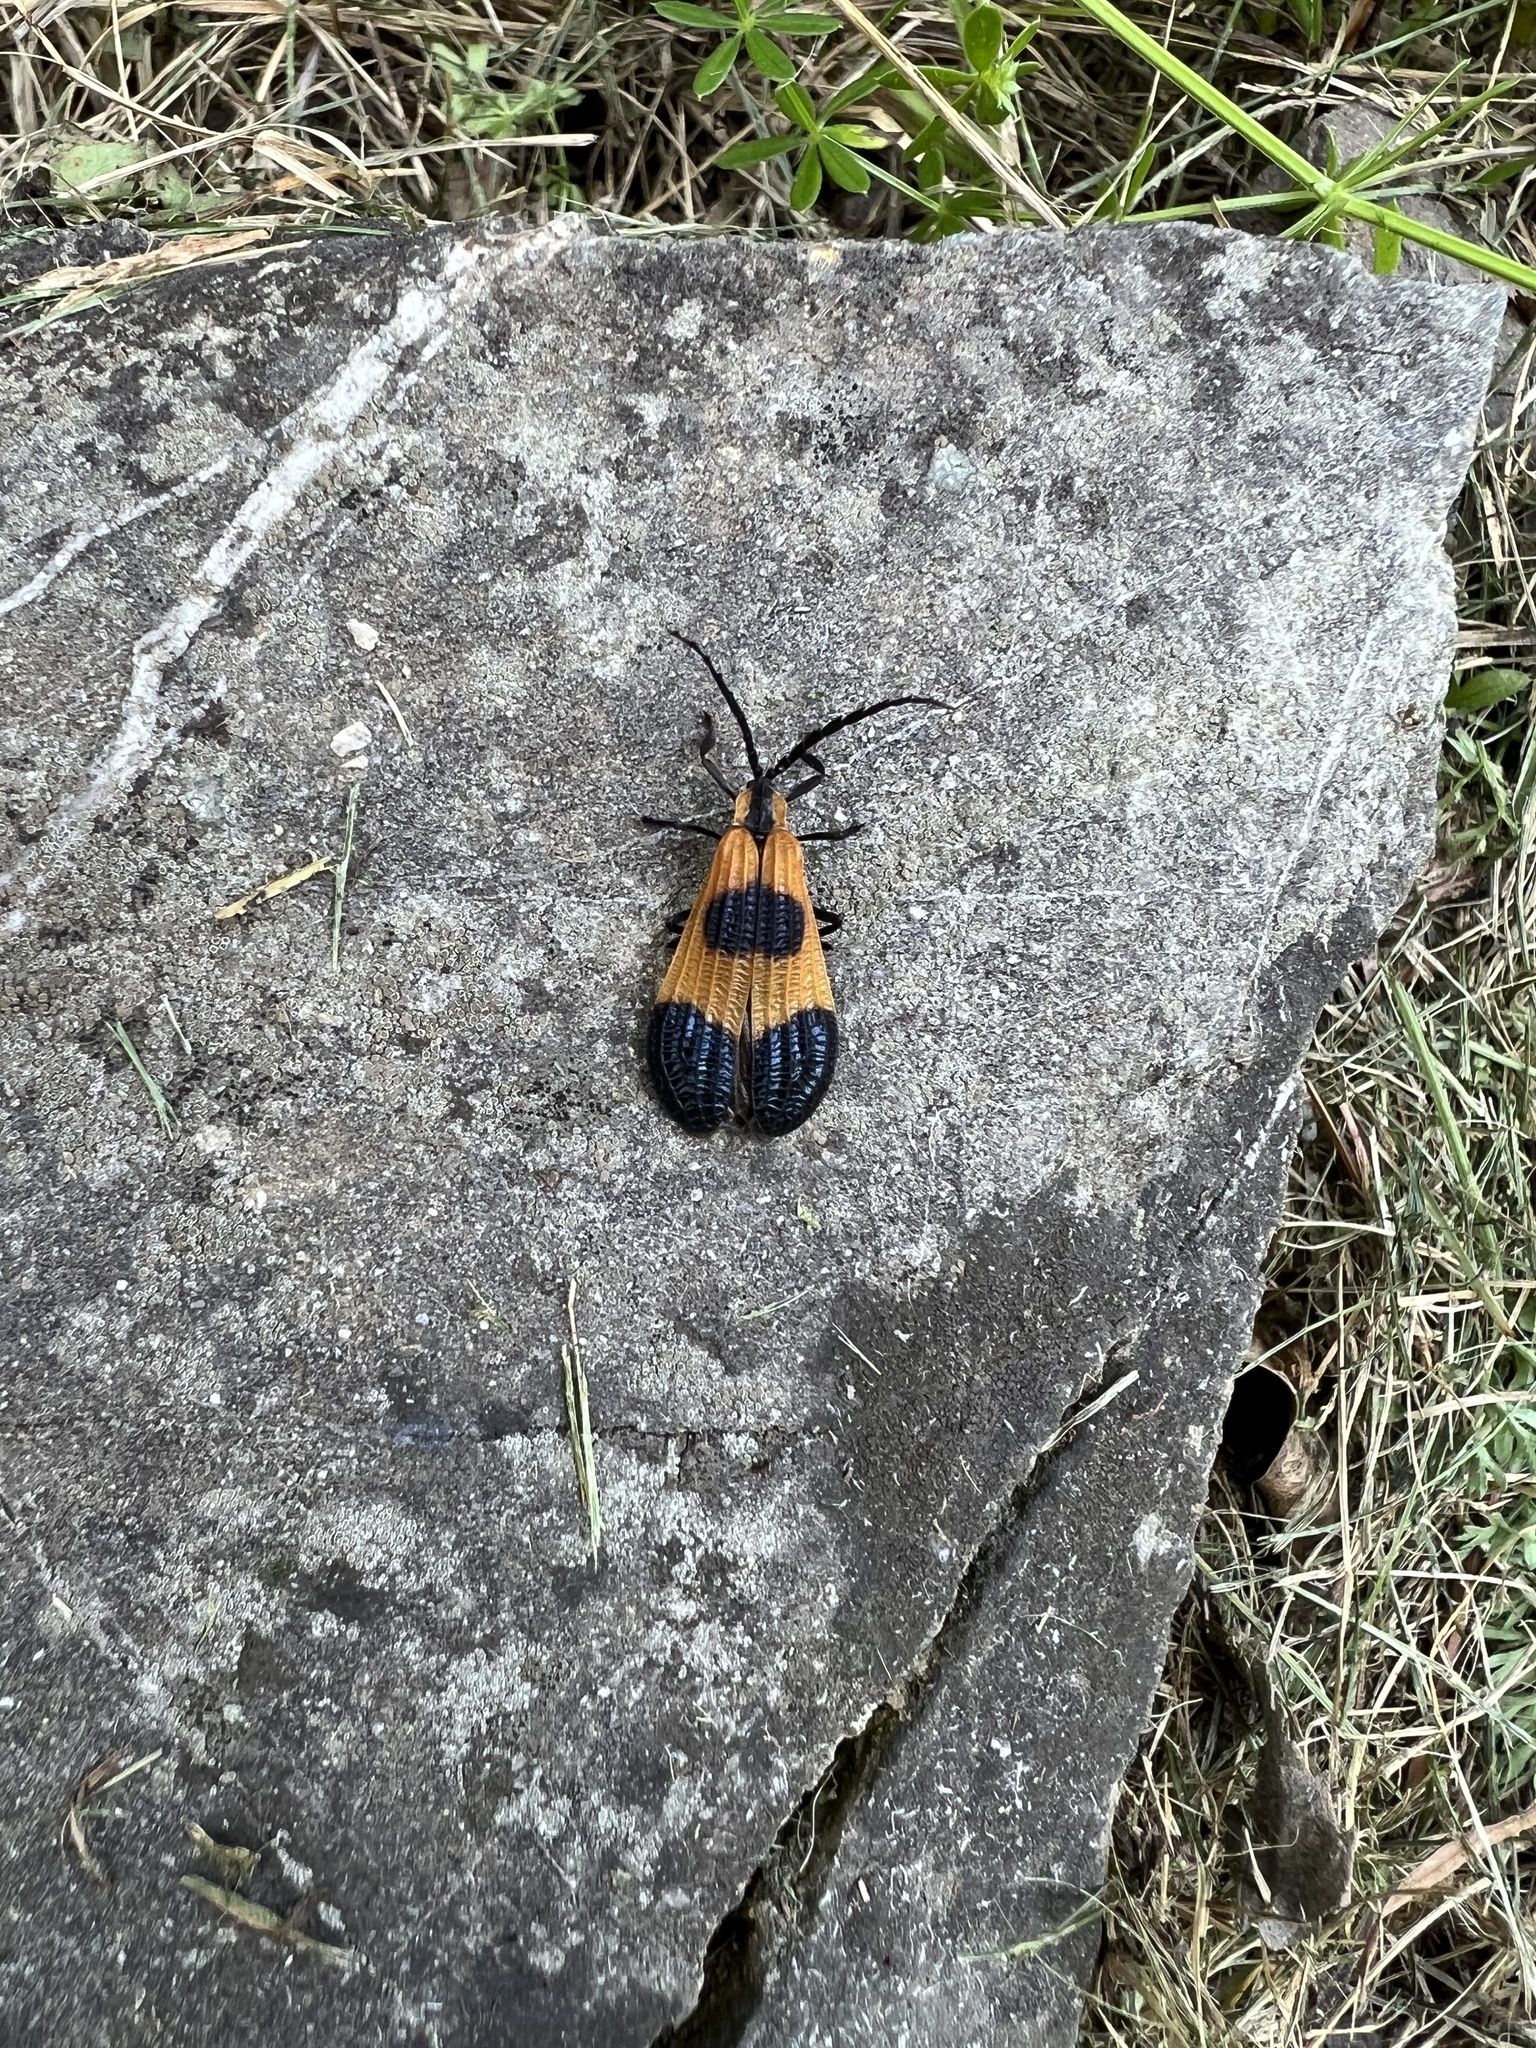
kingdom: Animalia
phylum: Arthropoda
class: Insecta
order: Coleoptera
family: Lycidae
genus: Calopteron
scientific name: Calopteron terminale
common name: End band net-winged beetle
